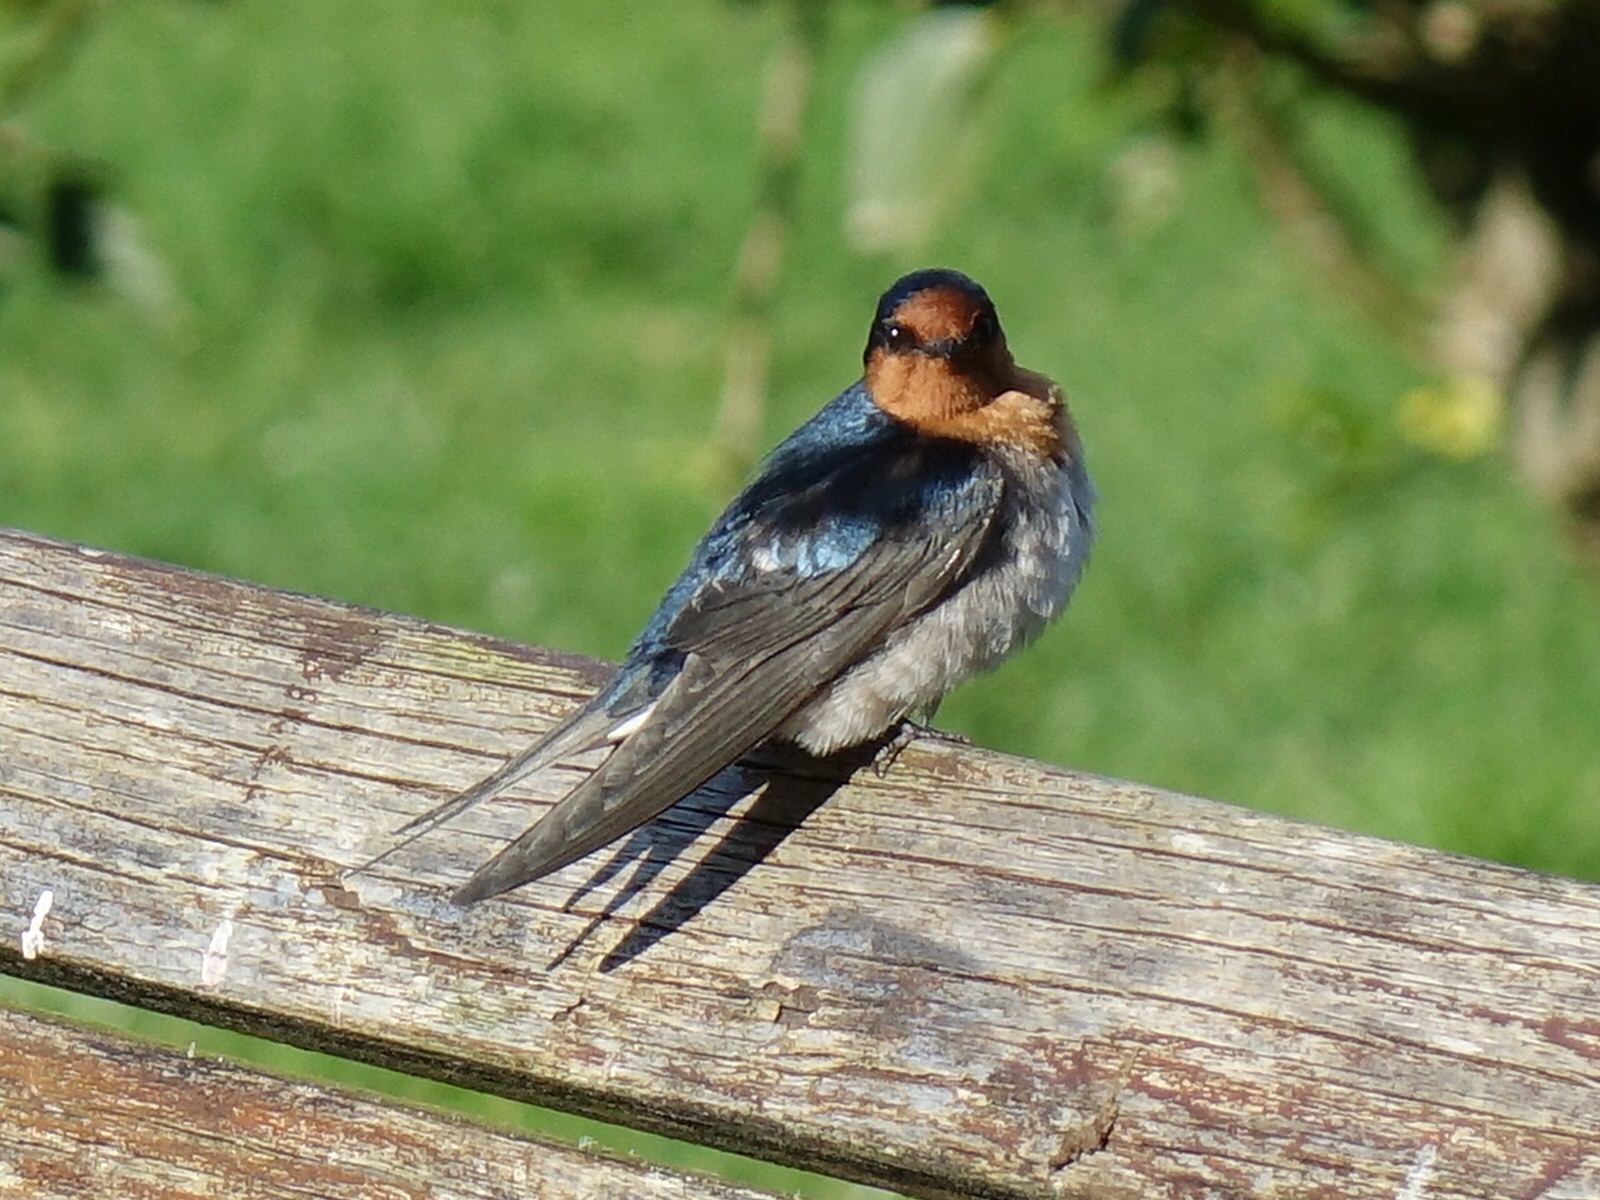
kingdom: Animalia
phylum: Chordata
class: Aves
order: Passeriformes
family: Hirundinidae
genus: Hirundo
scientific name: Hirundo neoxena
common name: Welcome swallow
